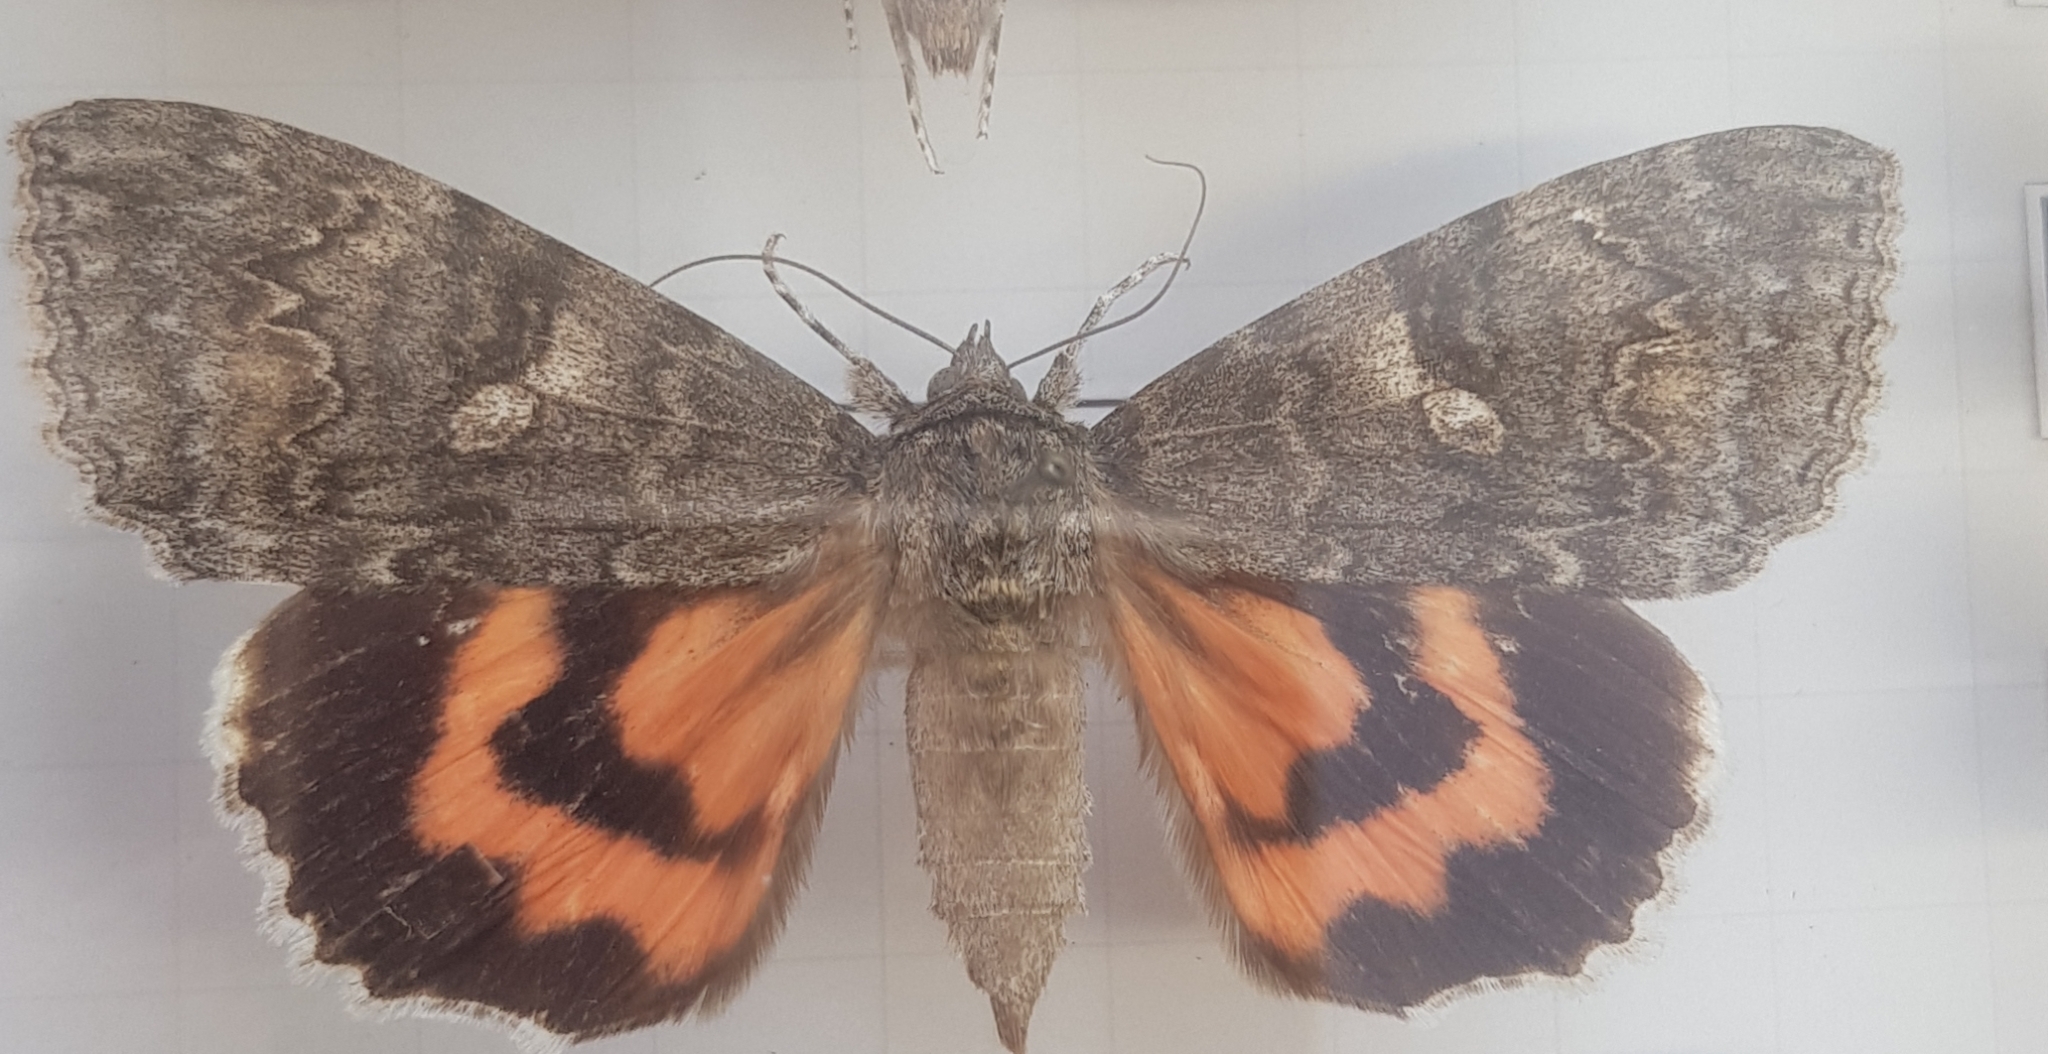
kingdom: Animalia
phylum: Arthropoda
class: Insecta
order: Lepidoptera
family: Erebidae
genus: Catocala
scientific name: Catocala nupta
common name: Red underwing
